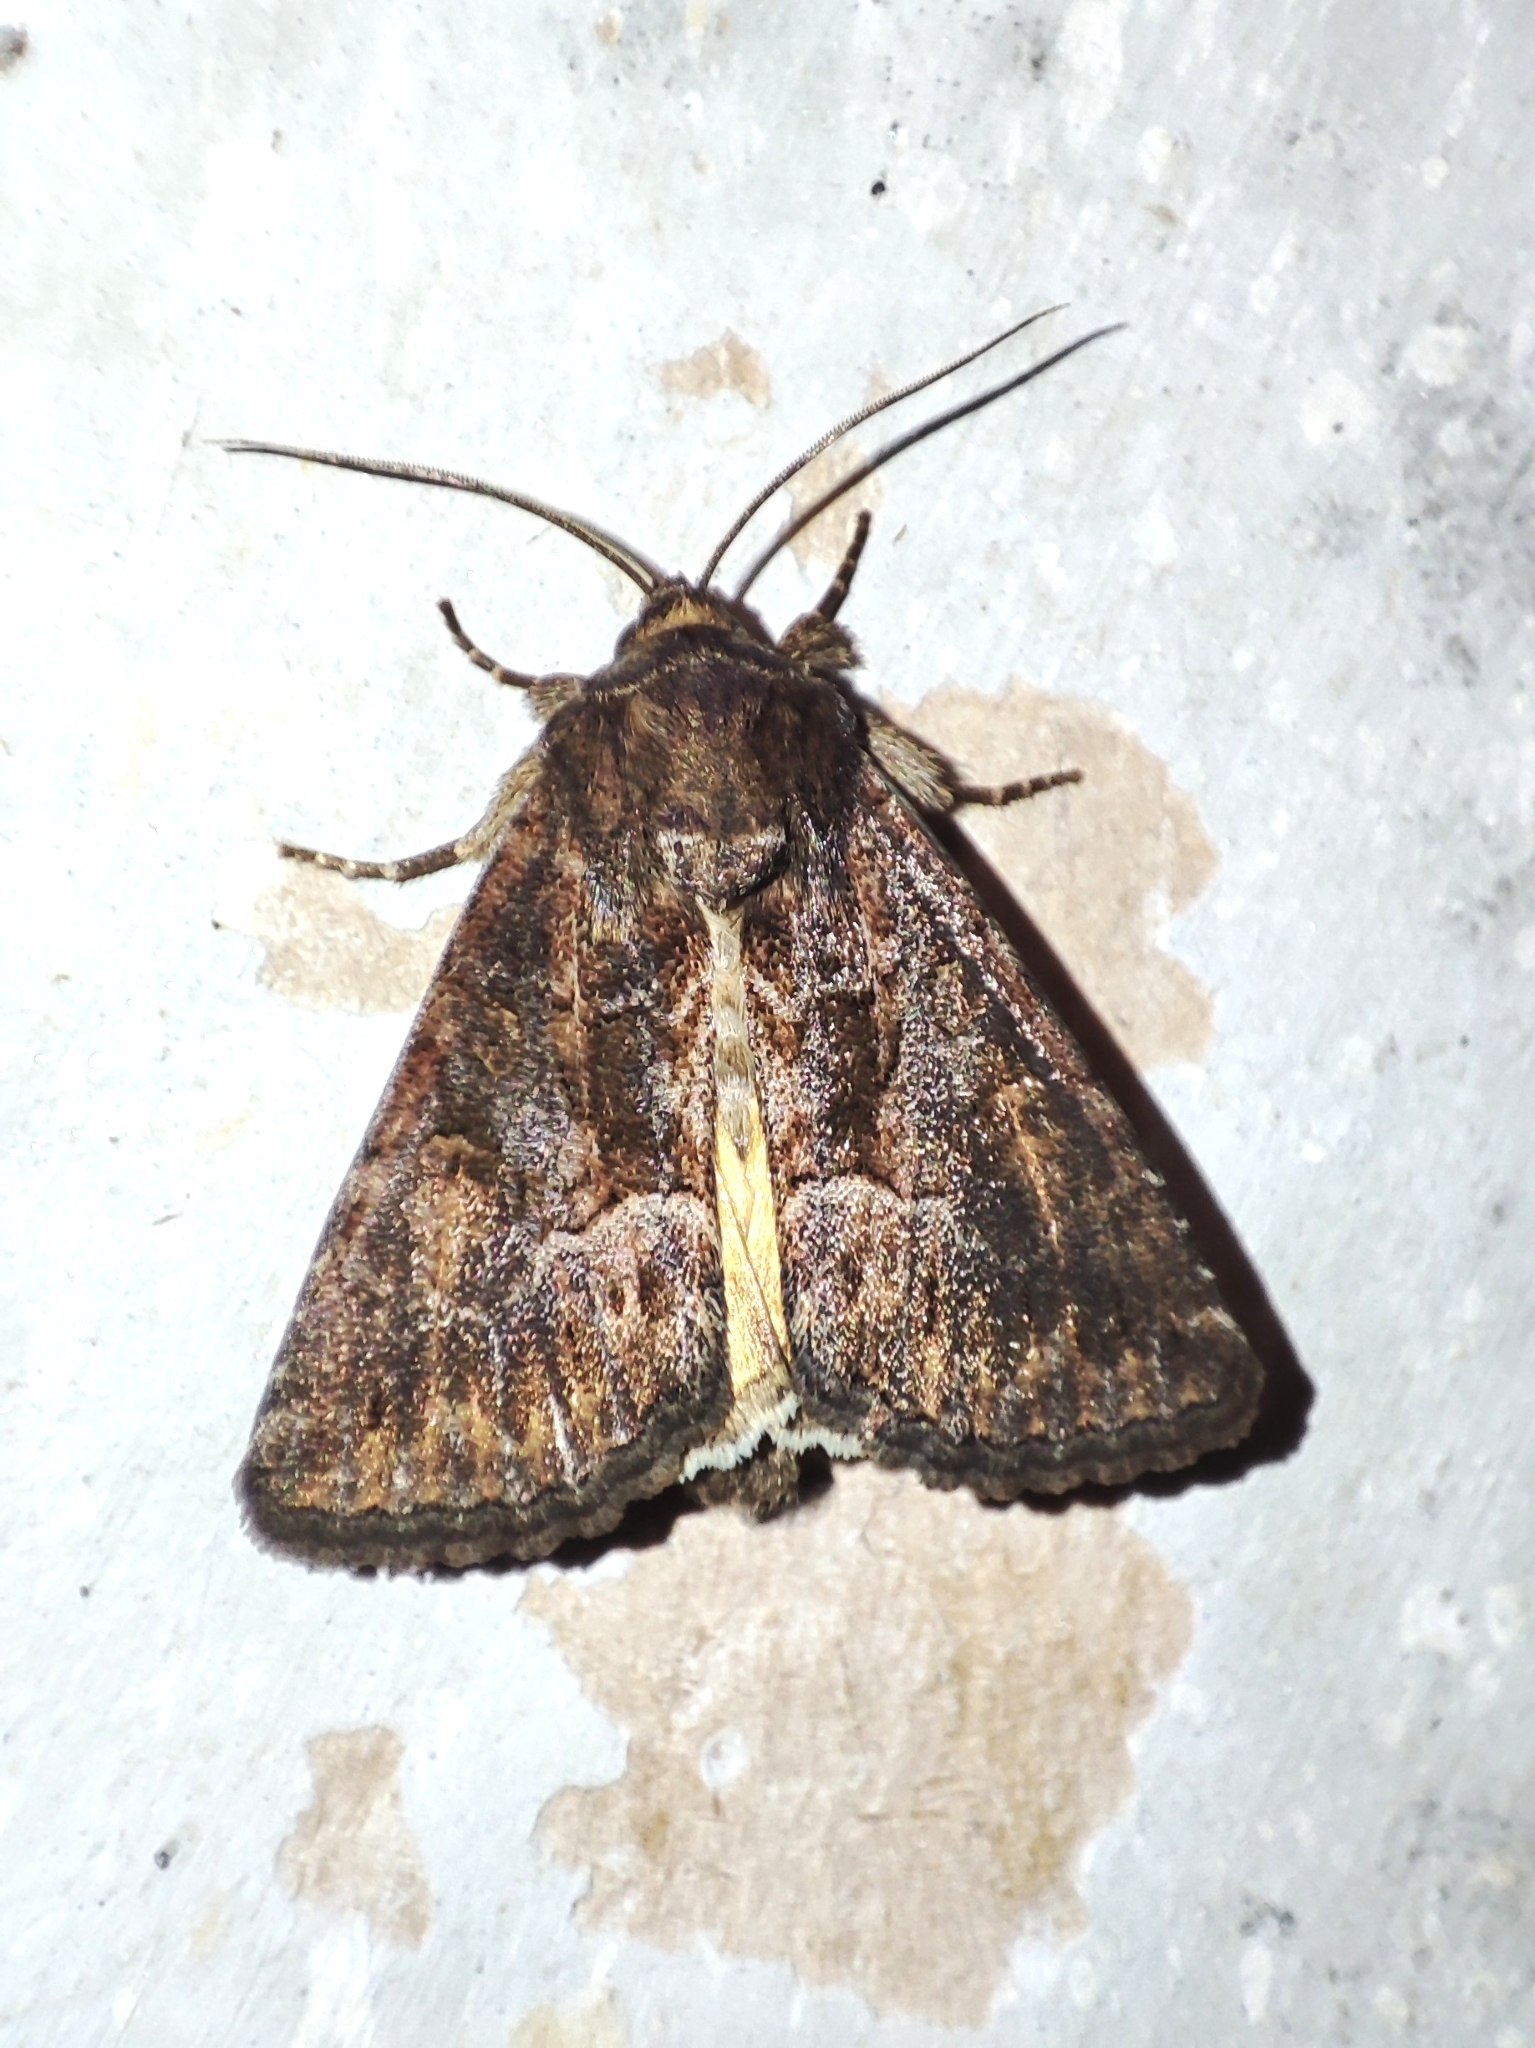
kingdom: Animalia
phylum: Arthropoda
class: Insecta
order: Lepidoptera
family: Noctuidae
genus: Thalpophila
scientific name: Thalpophila matura
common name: Straw underwing
